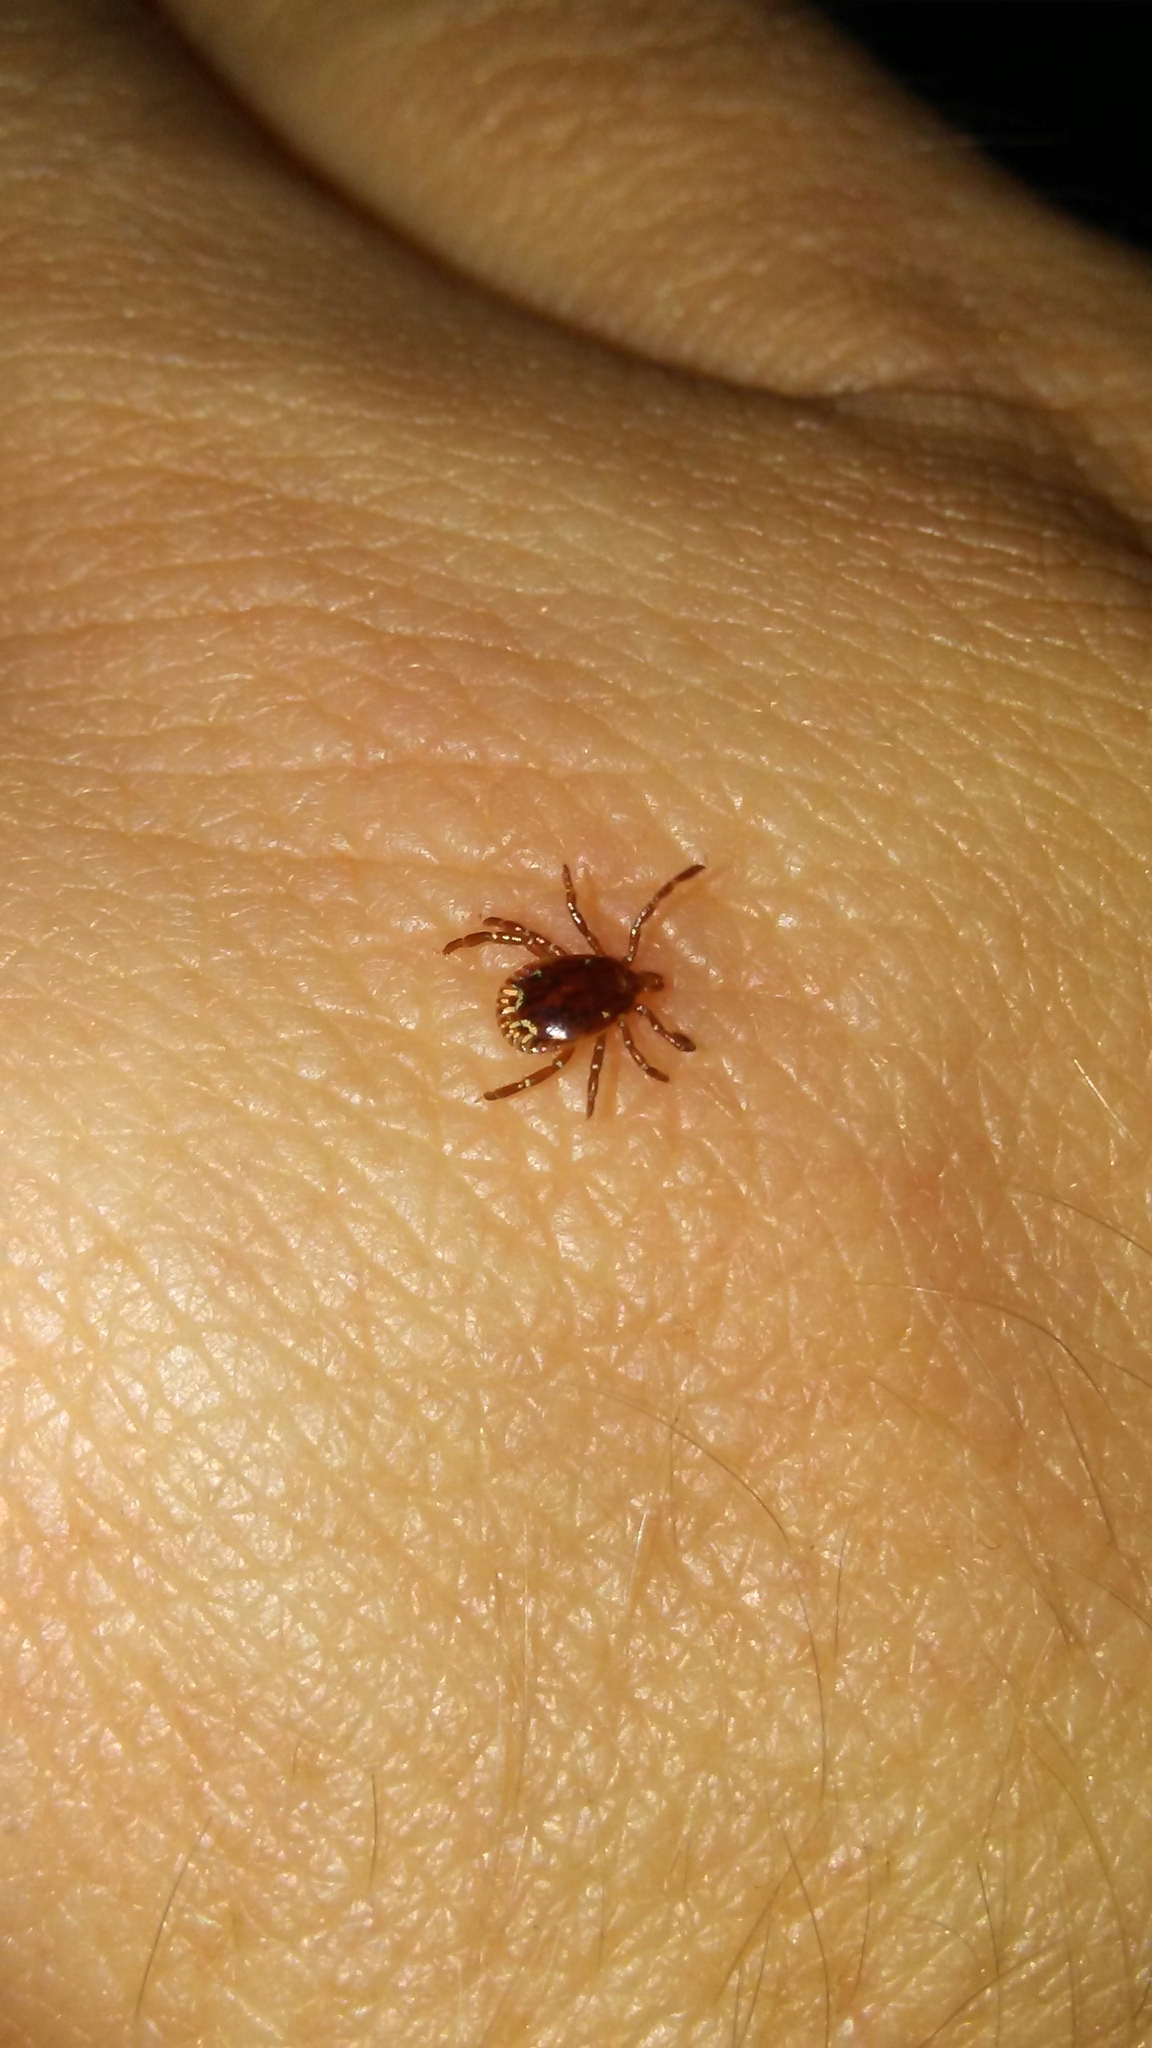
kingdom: Animalia
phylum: Arthropoda
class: Arachnida
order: Ixodida
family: Ixodidae
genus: Amblyomma
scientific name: Amblyomma americanum
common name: Lone star tick
